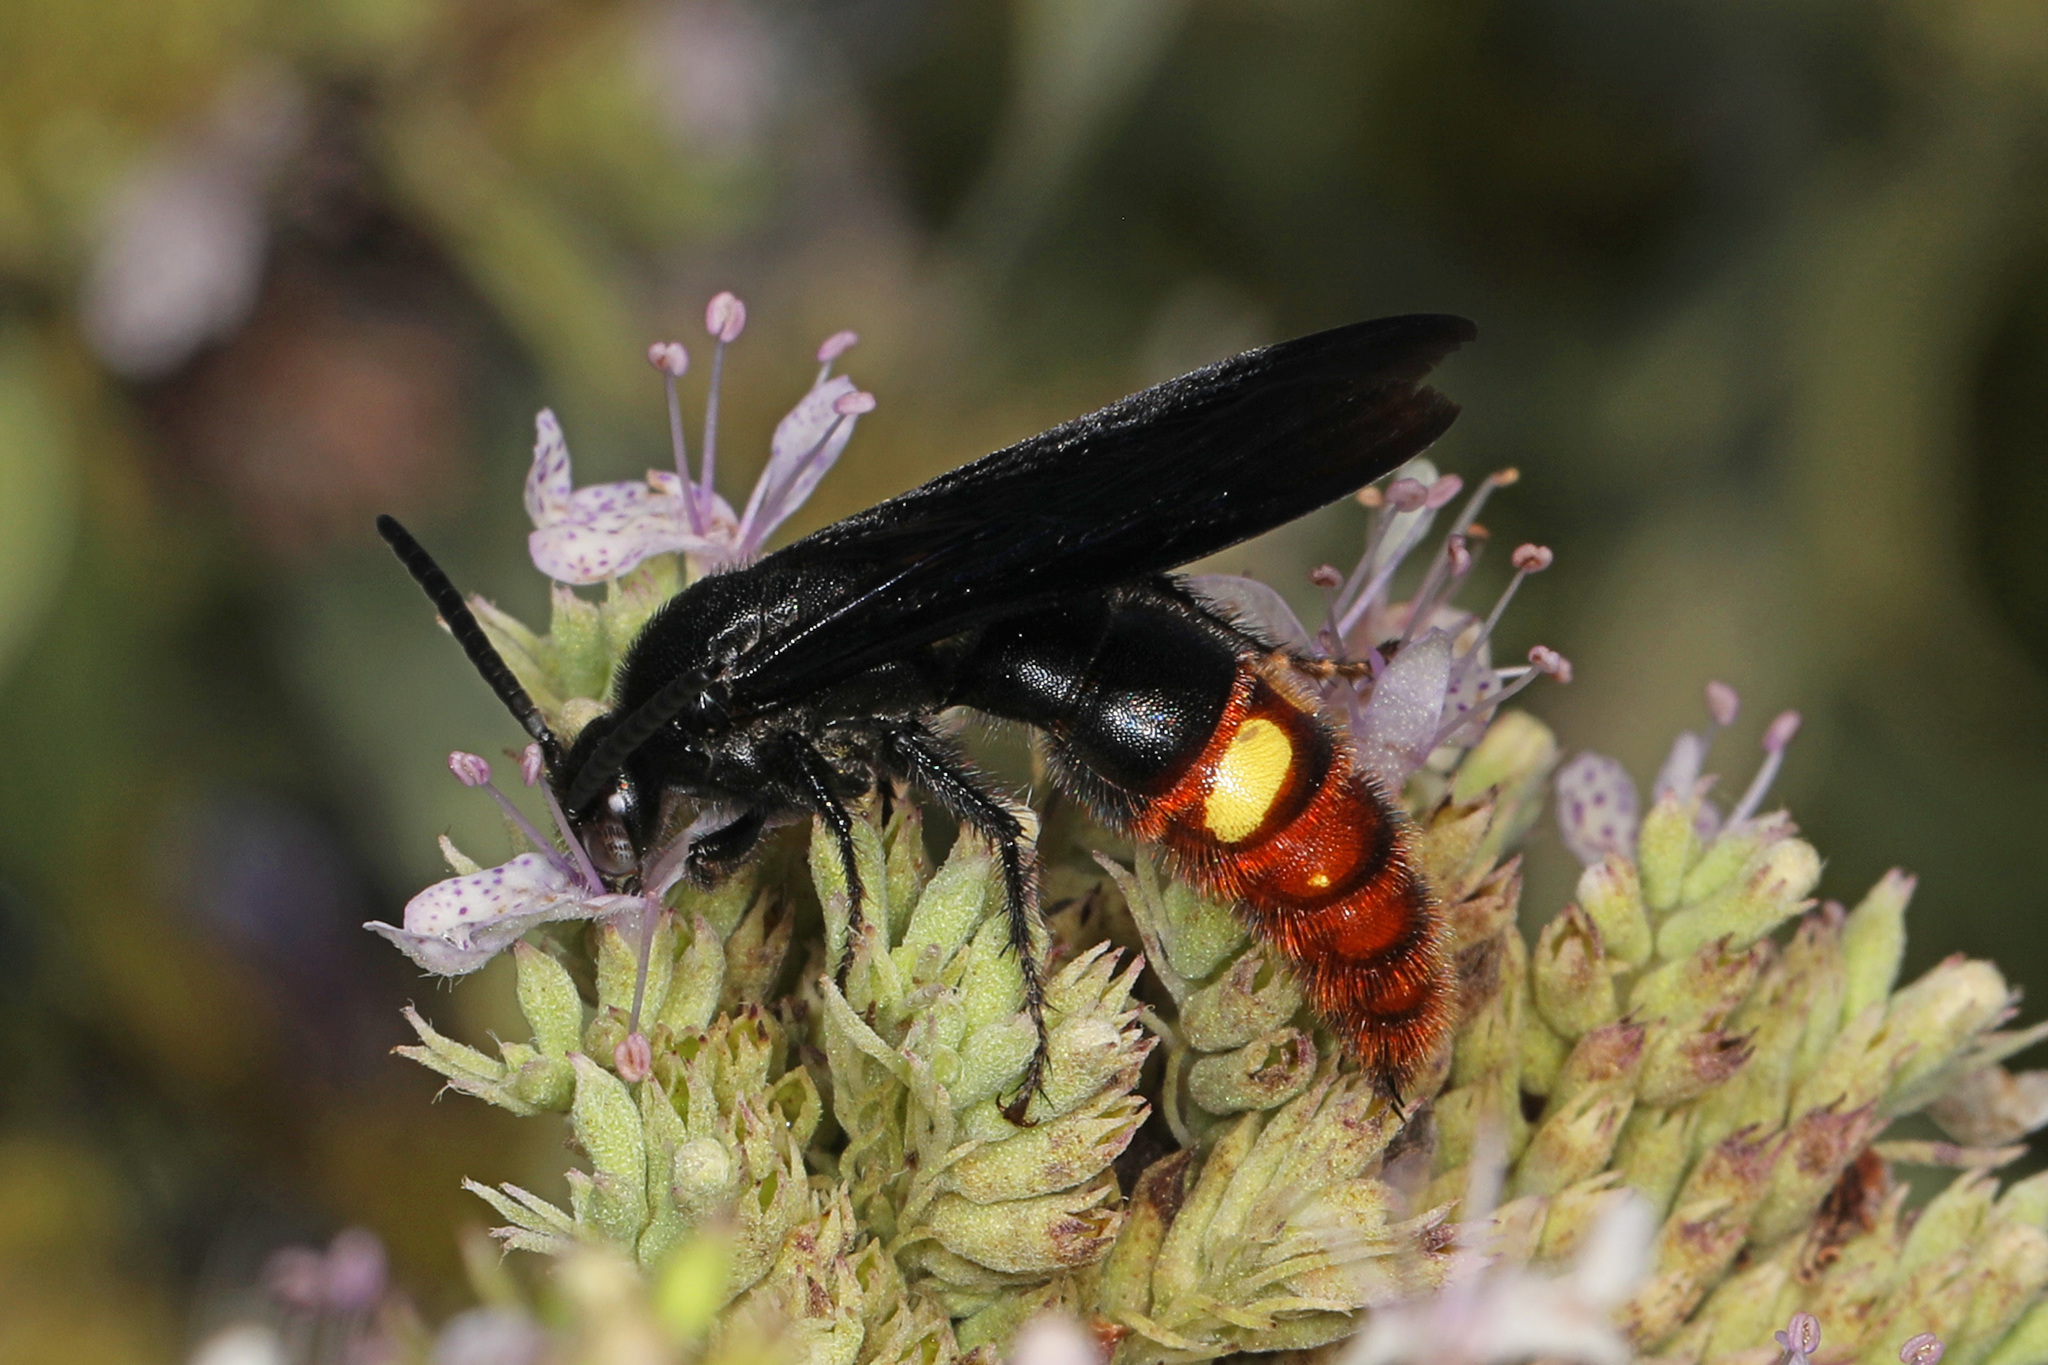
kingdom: Animalia
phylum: Arthropoda
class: Insecta
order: Hymenoptera
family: Scoliidae
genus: Scolia
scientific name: Scolia dubia
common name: Blue-winged scoliid wasp
